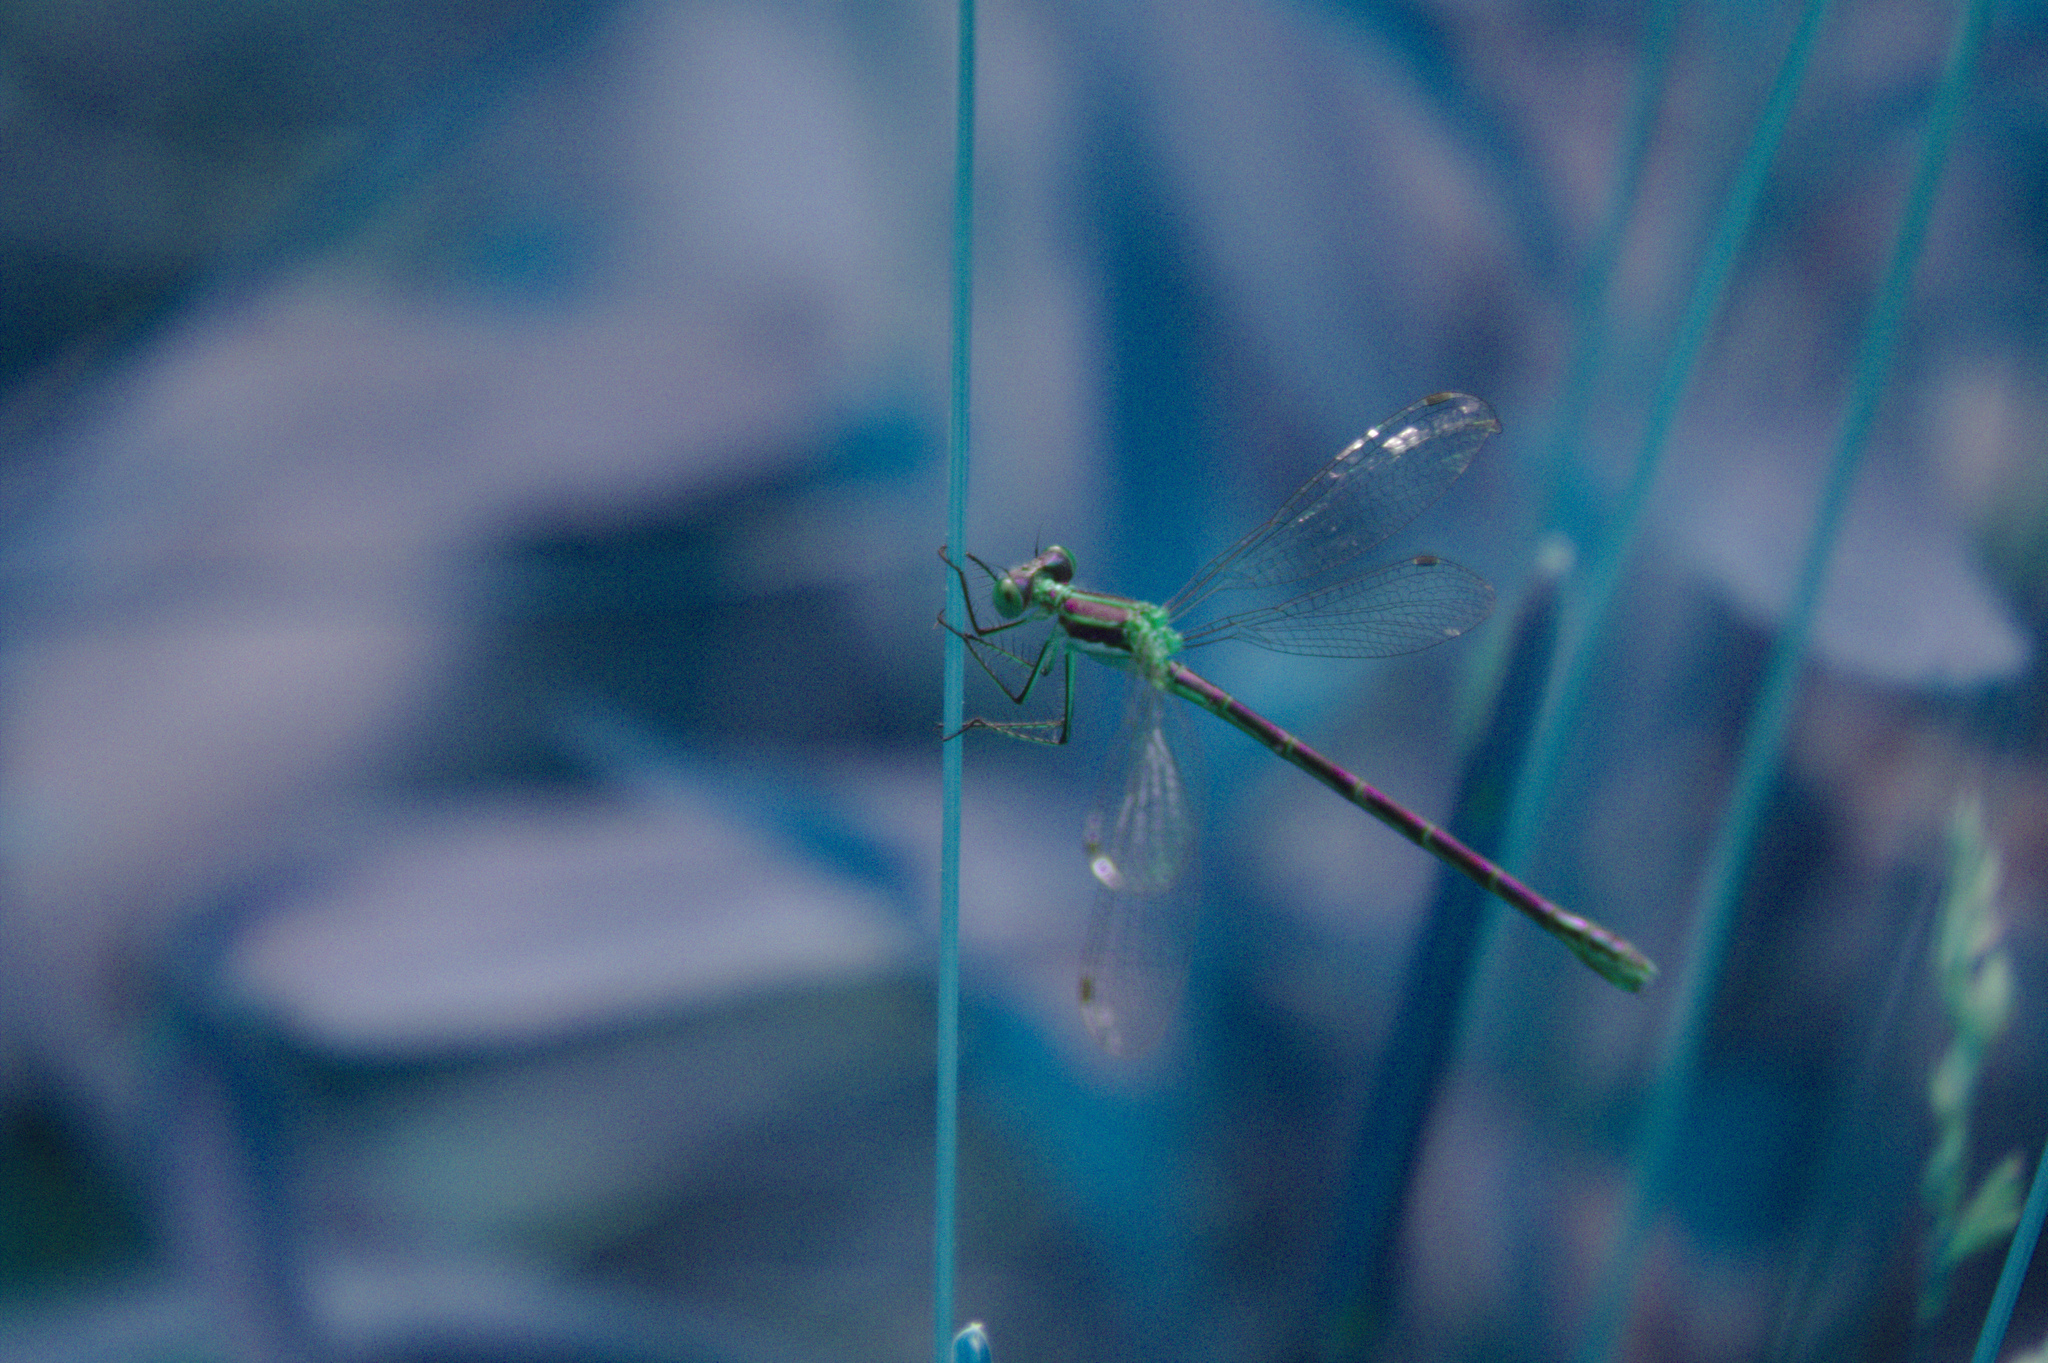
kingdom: Animalia
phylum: Arthropoda
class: Insecta
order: Odonata
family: Lestidae
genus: Lestes
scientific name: Lestes dryas
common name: Scarce emerald damselfly
